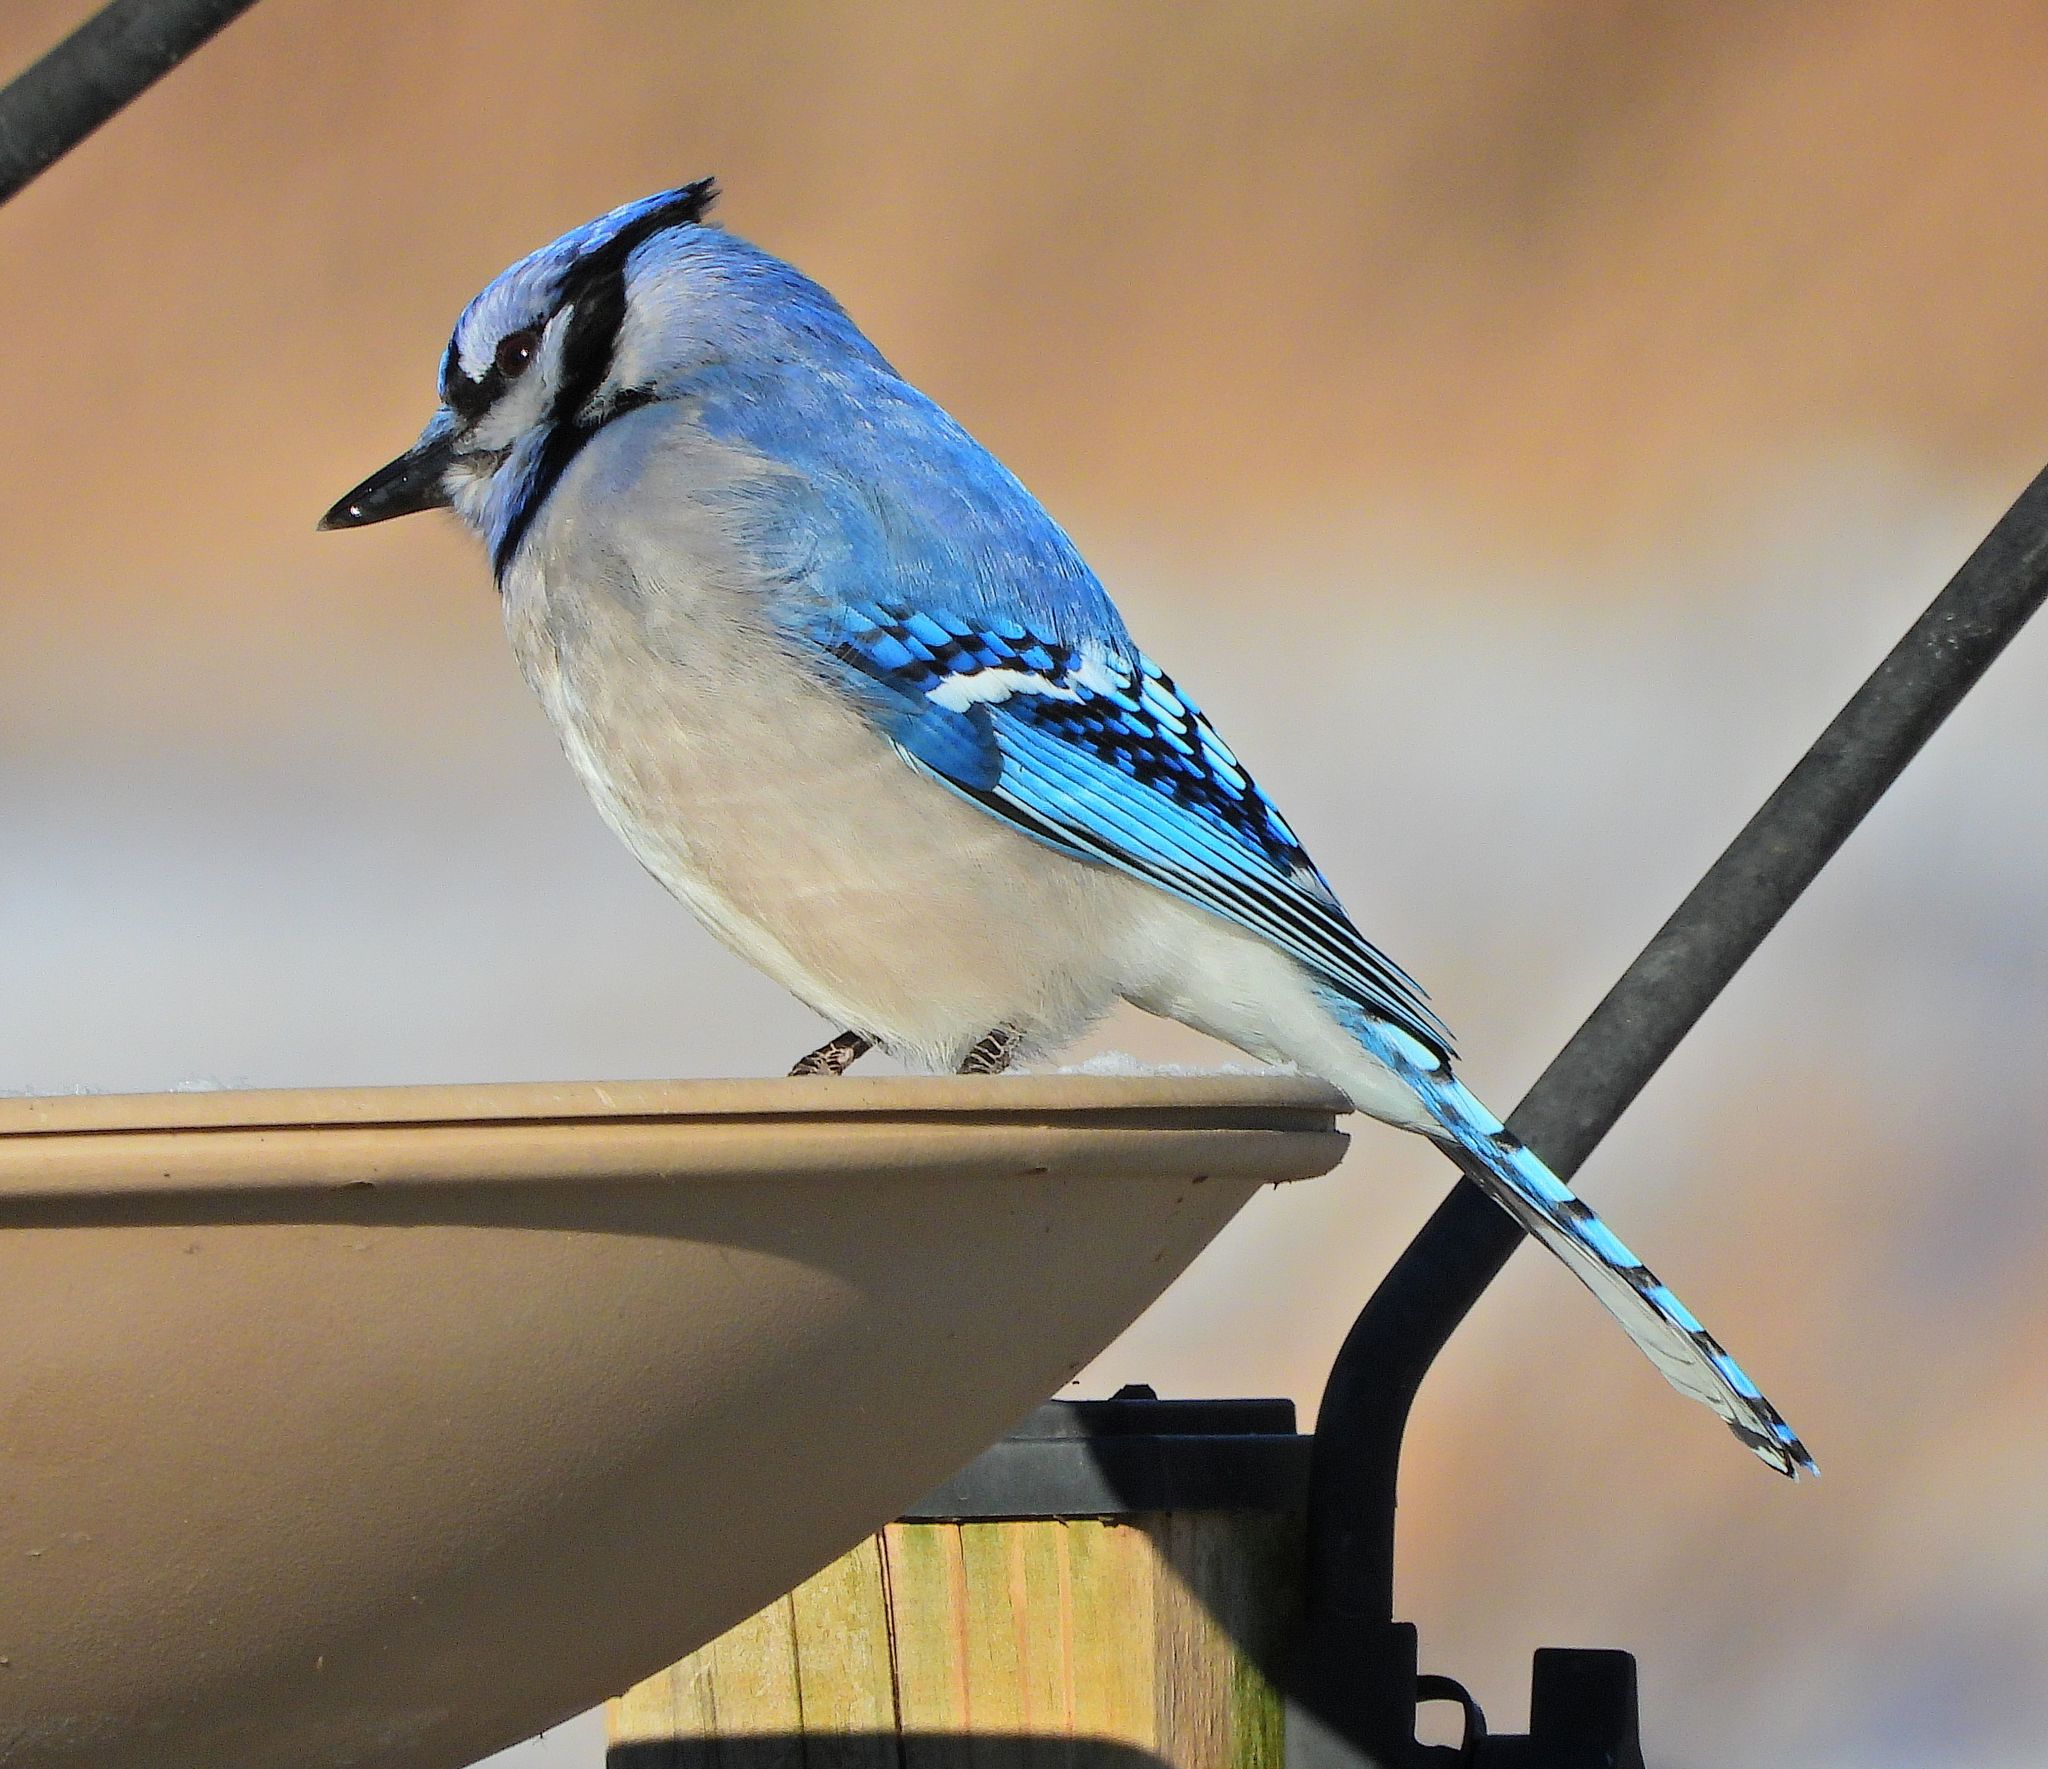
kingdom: Animalia
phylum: Chordata
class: Aves
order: Passeriformes
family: Corvidae
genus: Cyanocitta
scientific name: Cyanocitta cristata
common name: Blue jay
